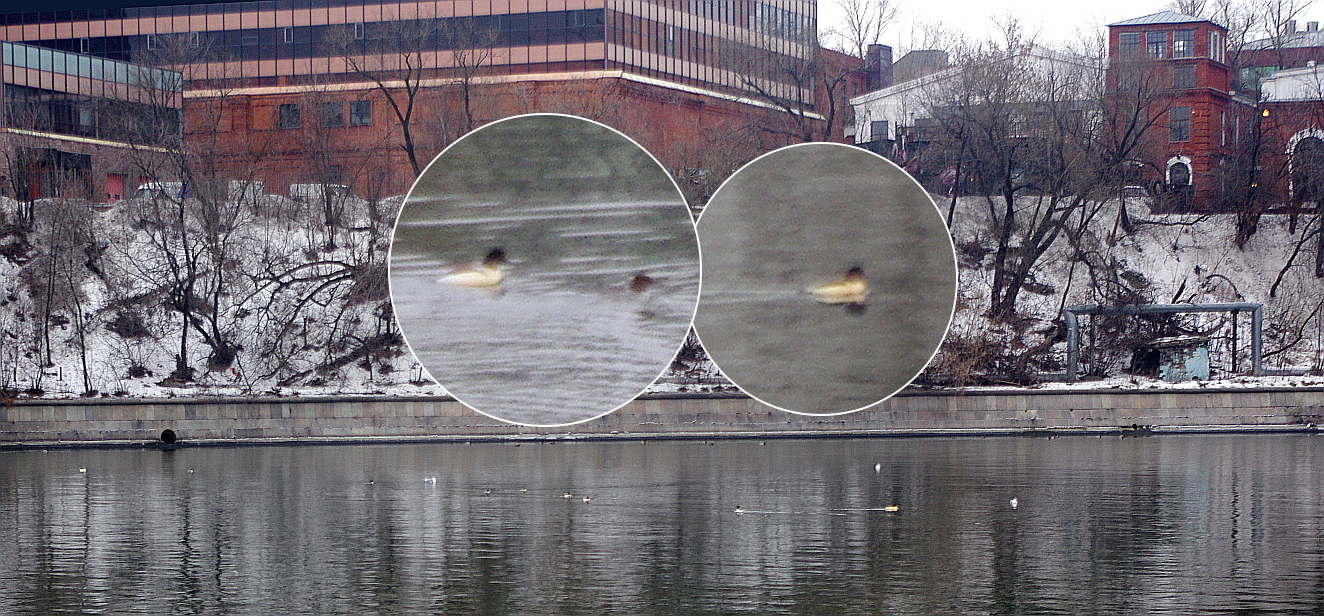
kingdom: Animalia
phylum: Chordata
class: Aves
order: Anseriformes
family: Anatidae
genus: Mergus
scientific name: Mergus merganser
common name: Common merganser
